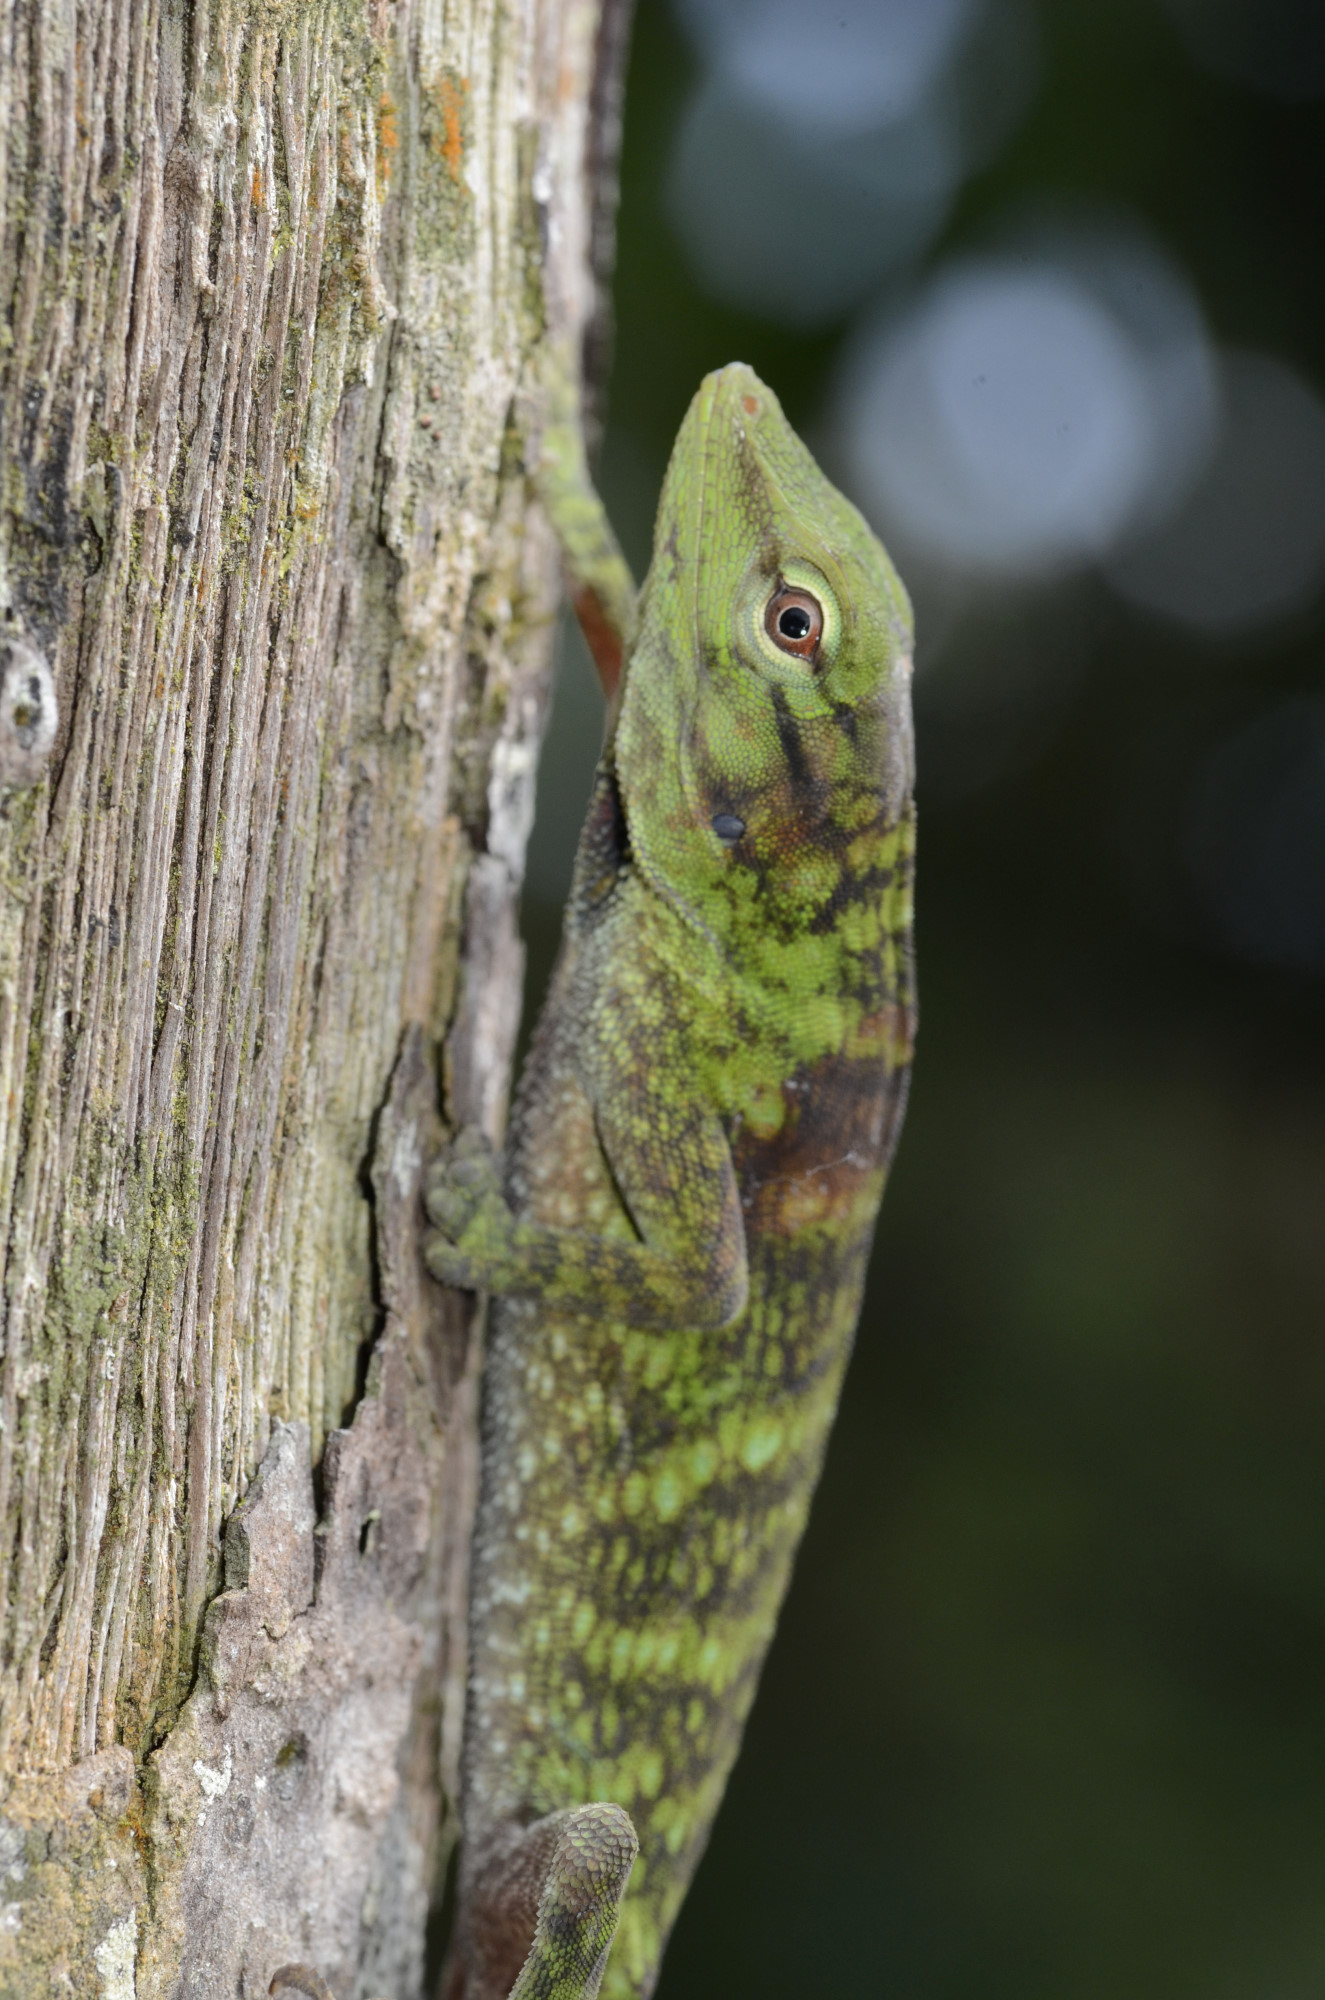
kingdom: Animalia
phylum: Chordata
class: Squamata
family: Dactyloidae
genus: Anolis
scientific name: Anolis parvauritus
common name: Giant green anole
